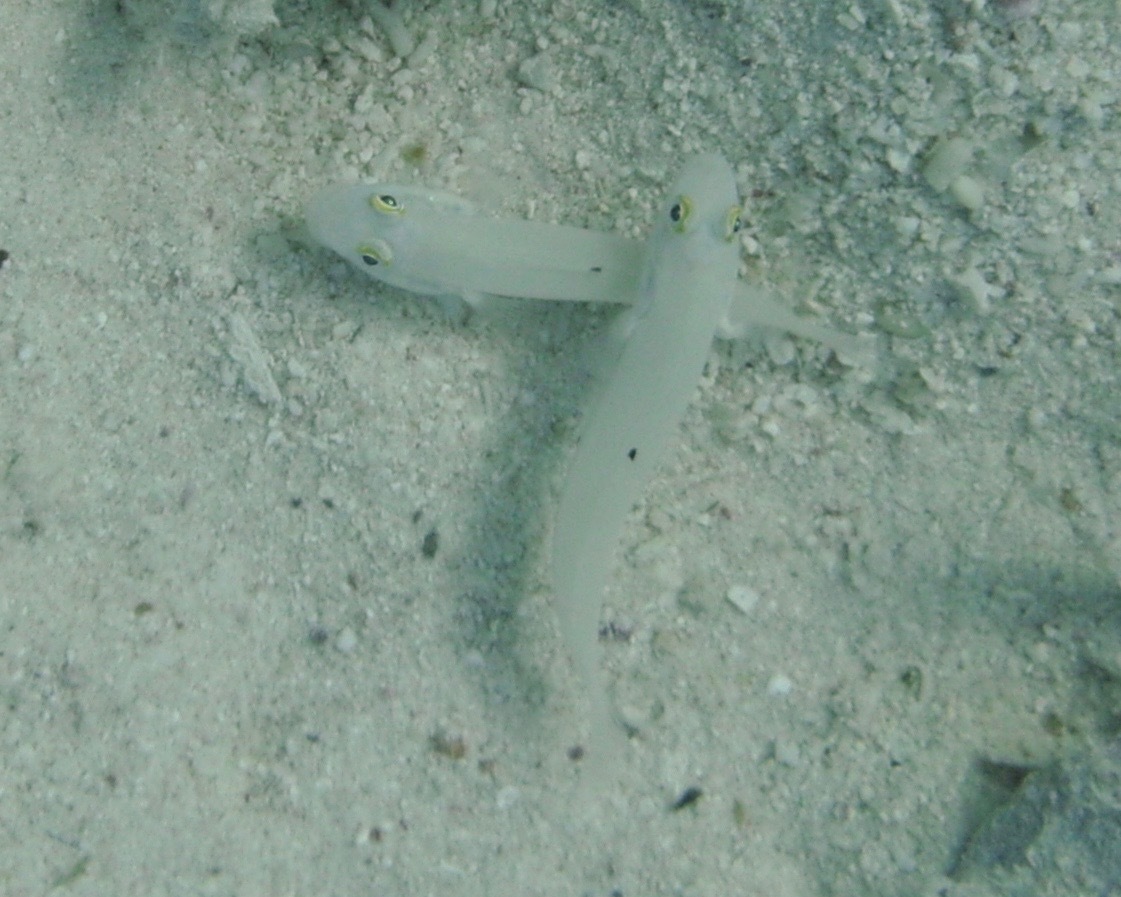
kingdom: Animalia
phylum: Chordata
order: Perciformes
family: Gobiidae
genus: Valenciennea
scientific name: Valenciennea sexguttata
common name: Sixspot goby
